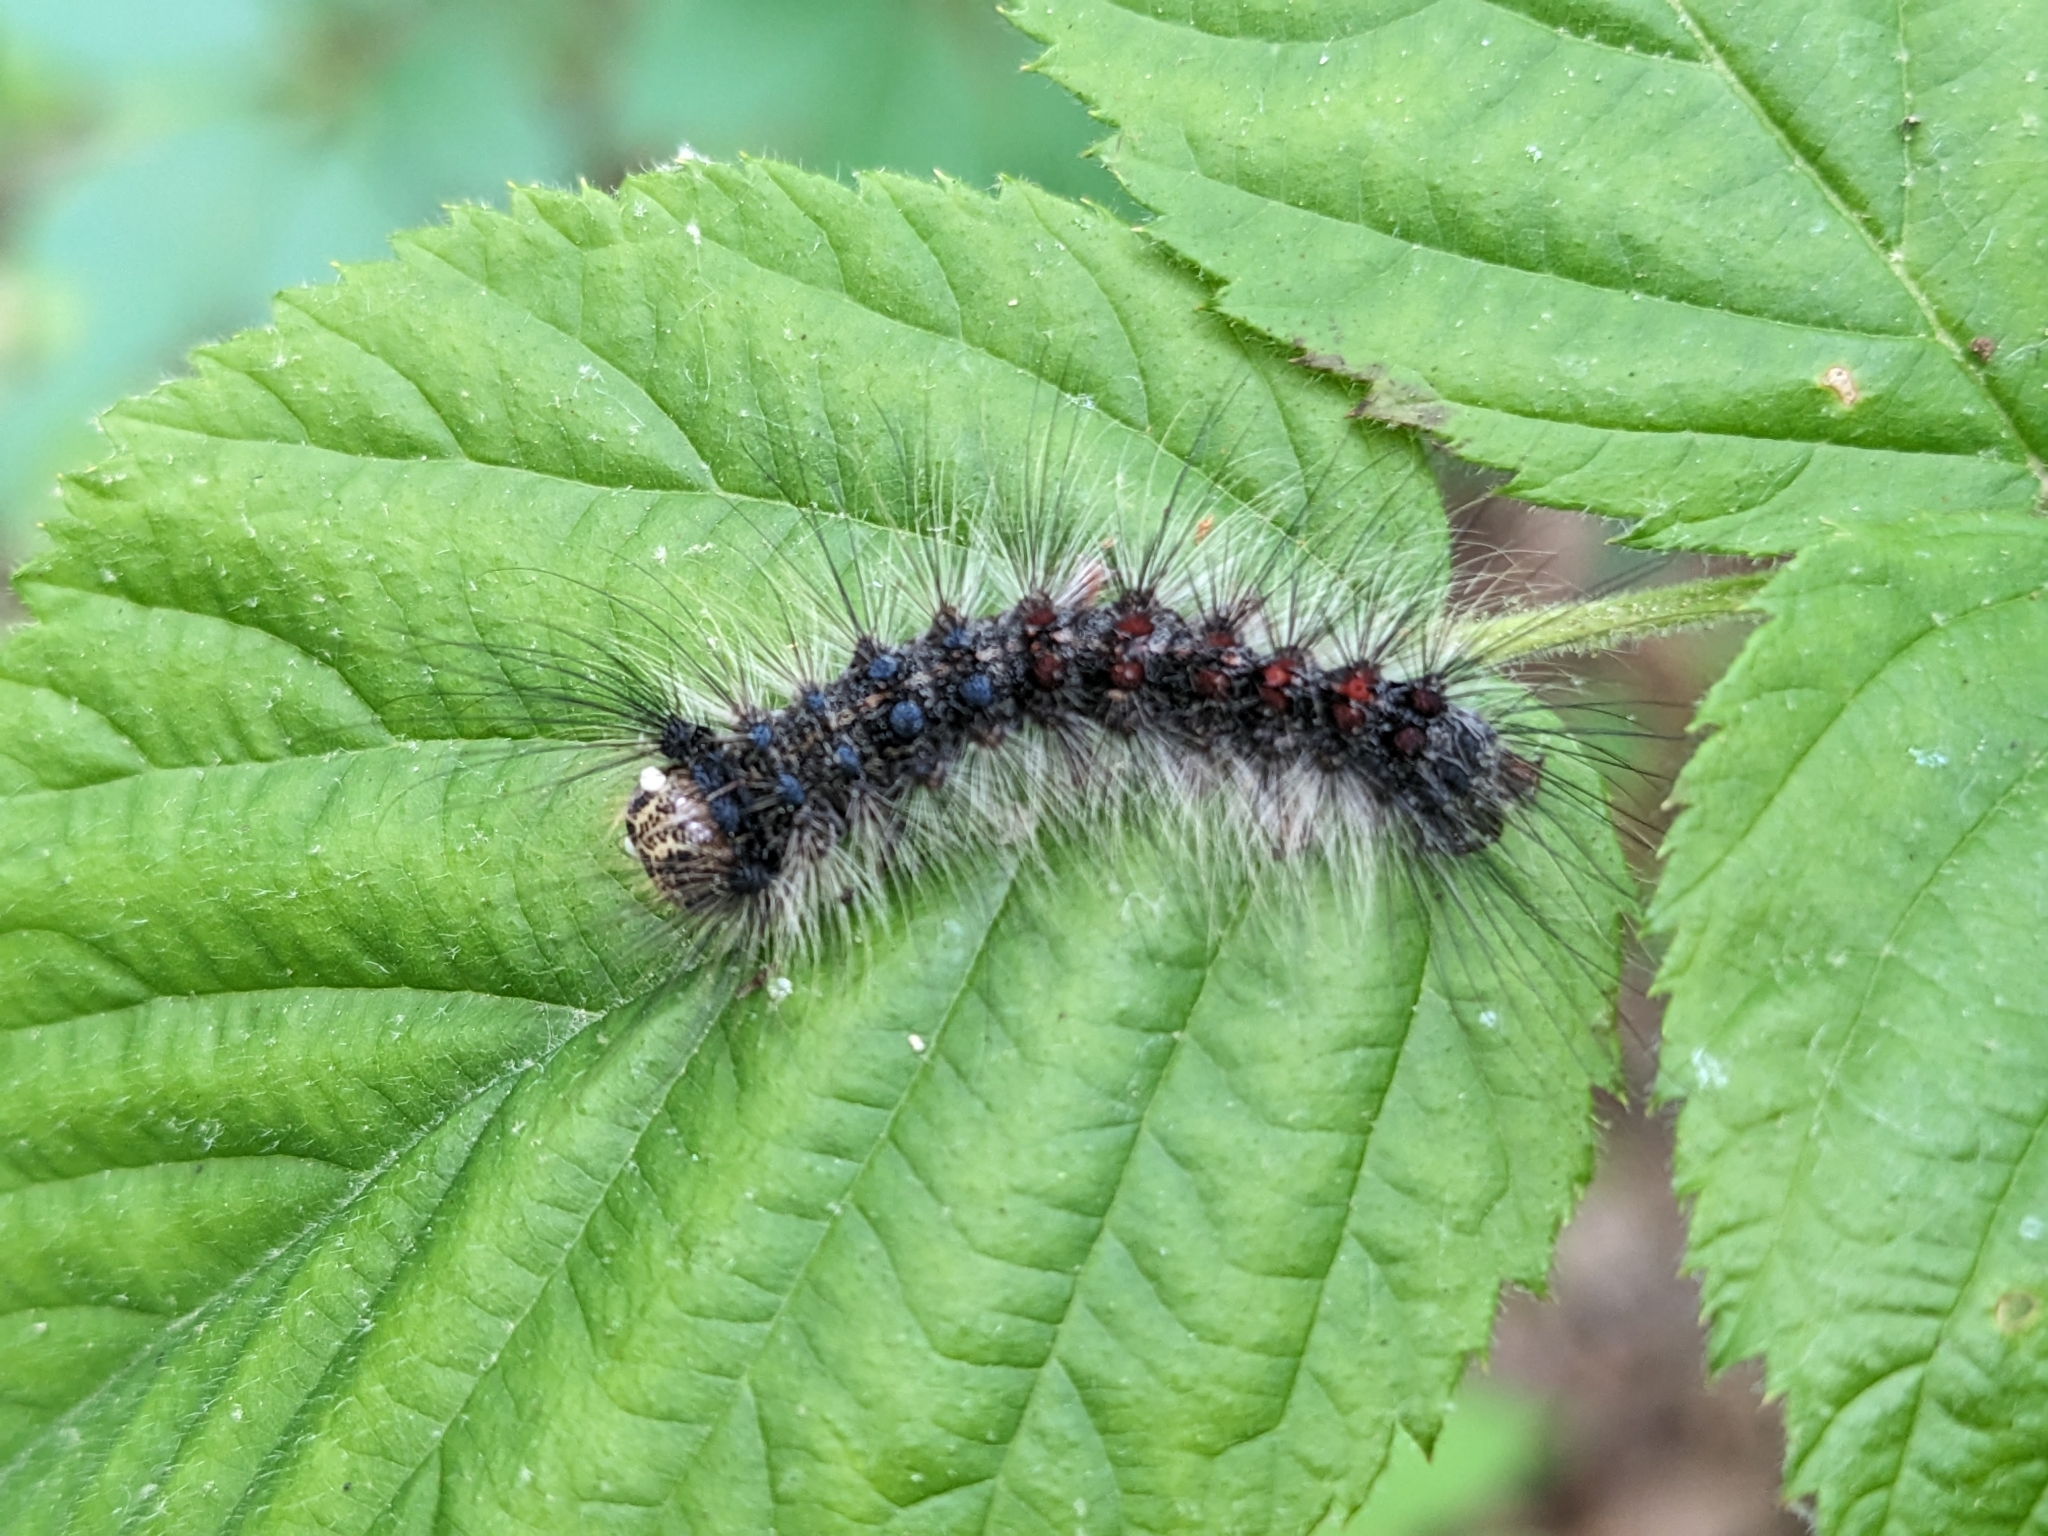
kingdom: Animalia
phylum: Arthropoda
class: Insecta
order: Lepidoptera
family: Erebidae
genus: Lymantria
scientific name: Lymantria dispar
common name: Gypsy moth
